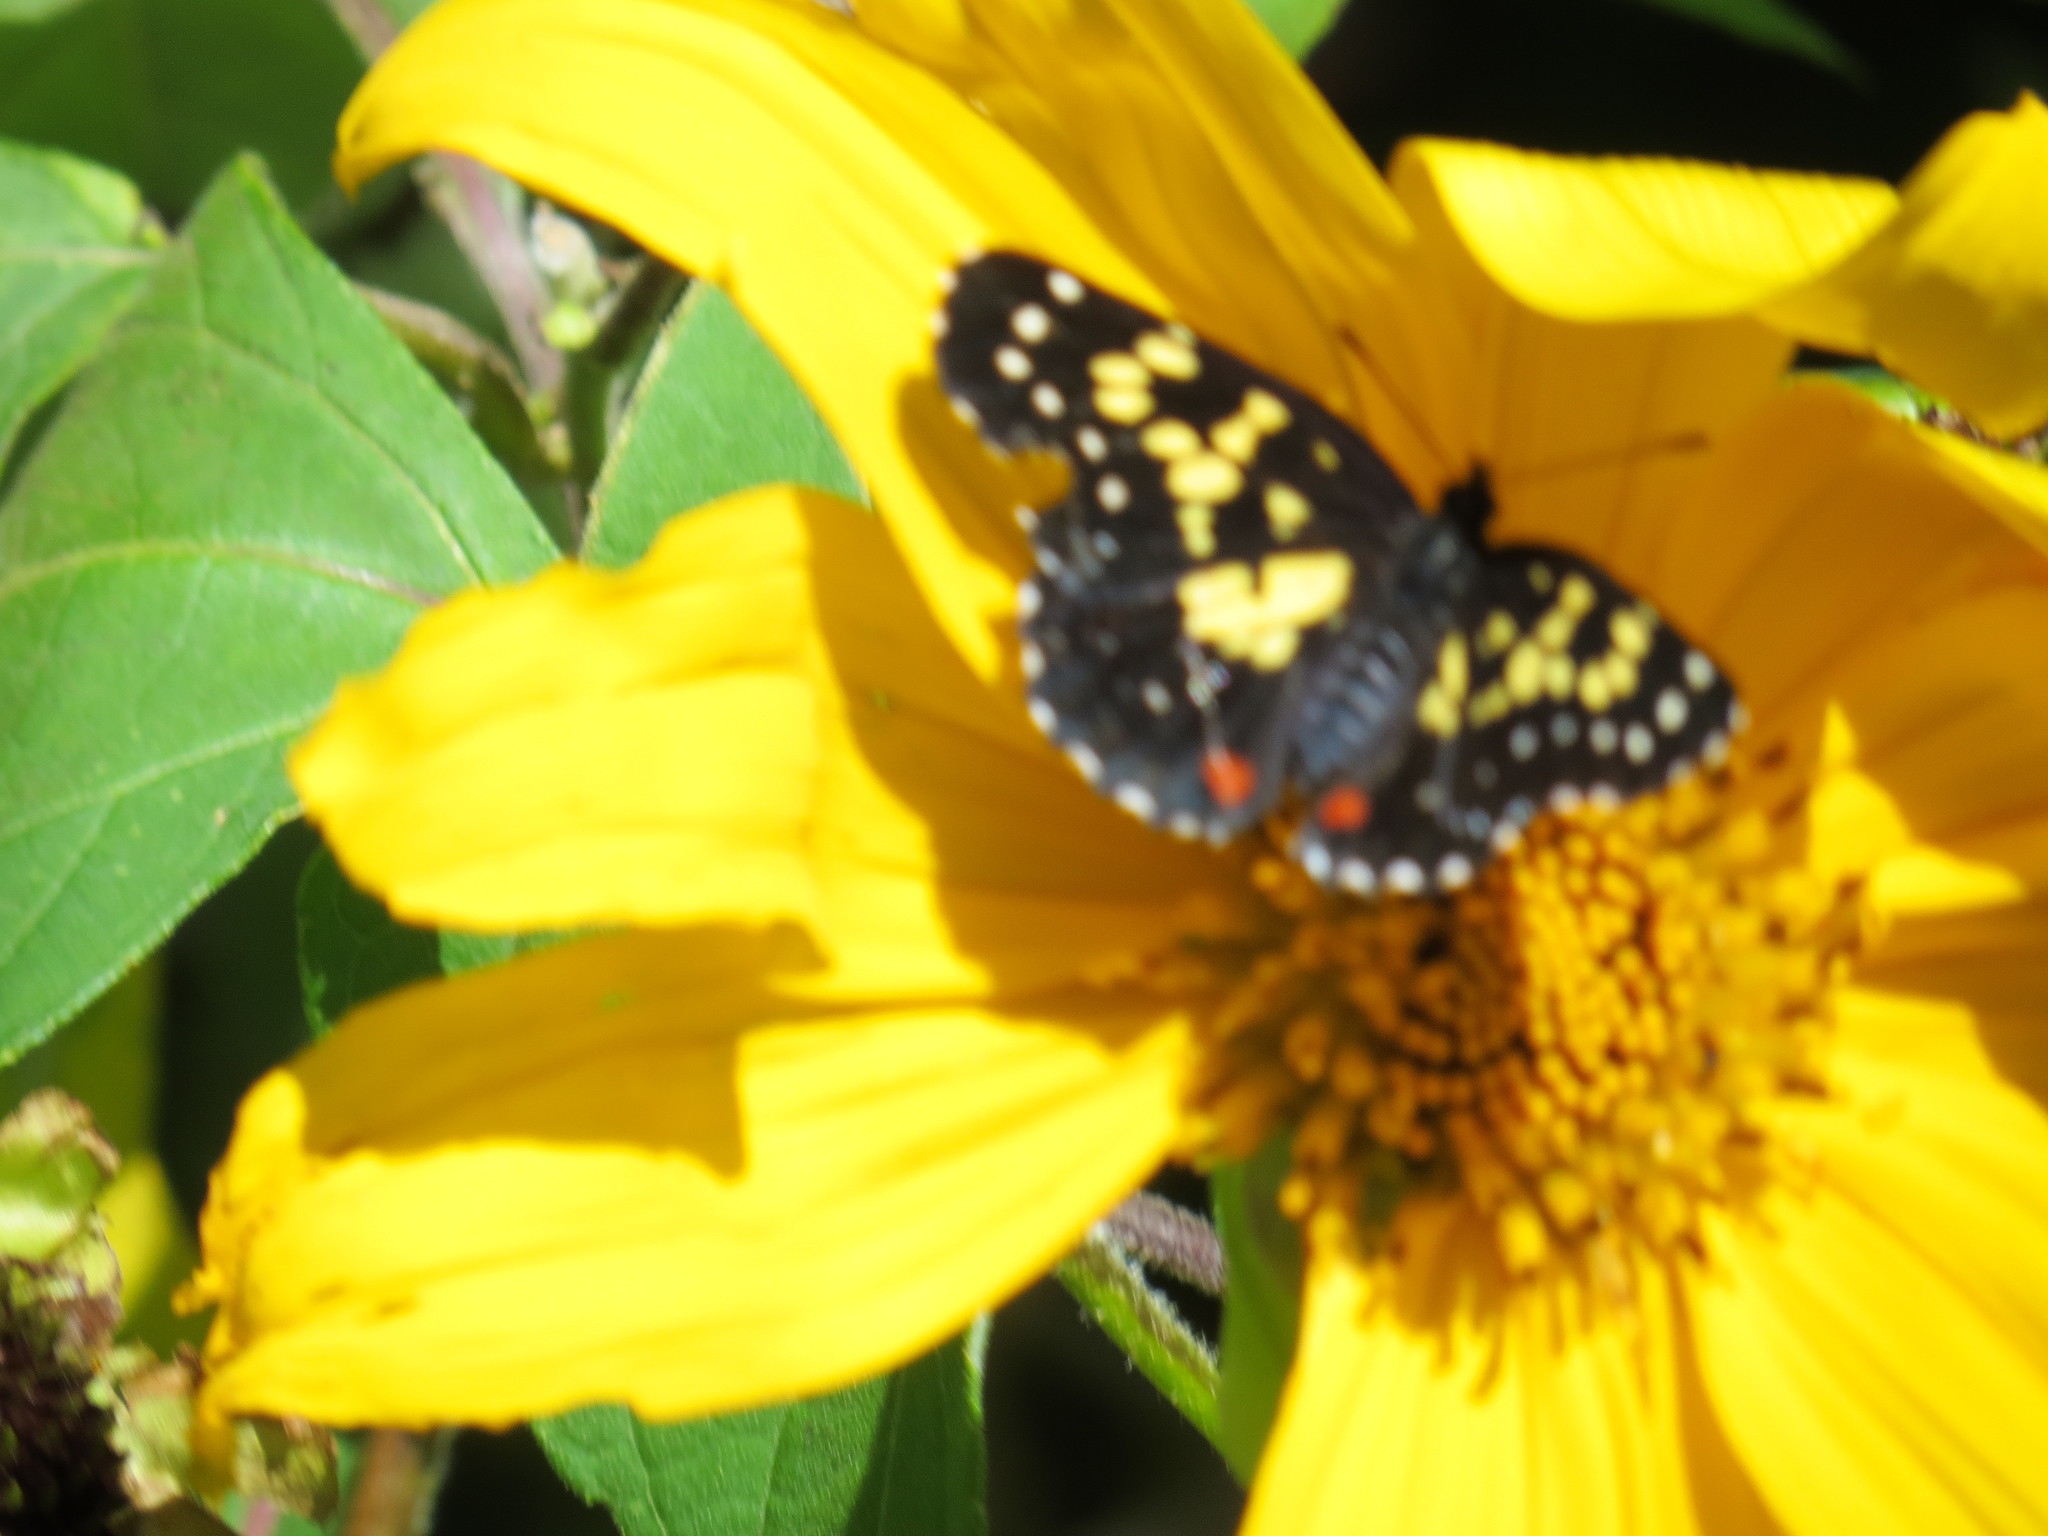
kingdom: Animalia
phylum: Arthropoda
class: Insecta
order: Lepidoptera
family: Nymphalidae
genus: Chlosyne
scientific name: Chlosyne poecile
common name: Poecile checkerspot
